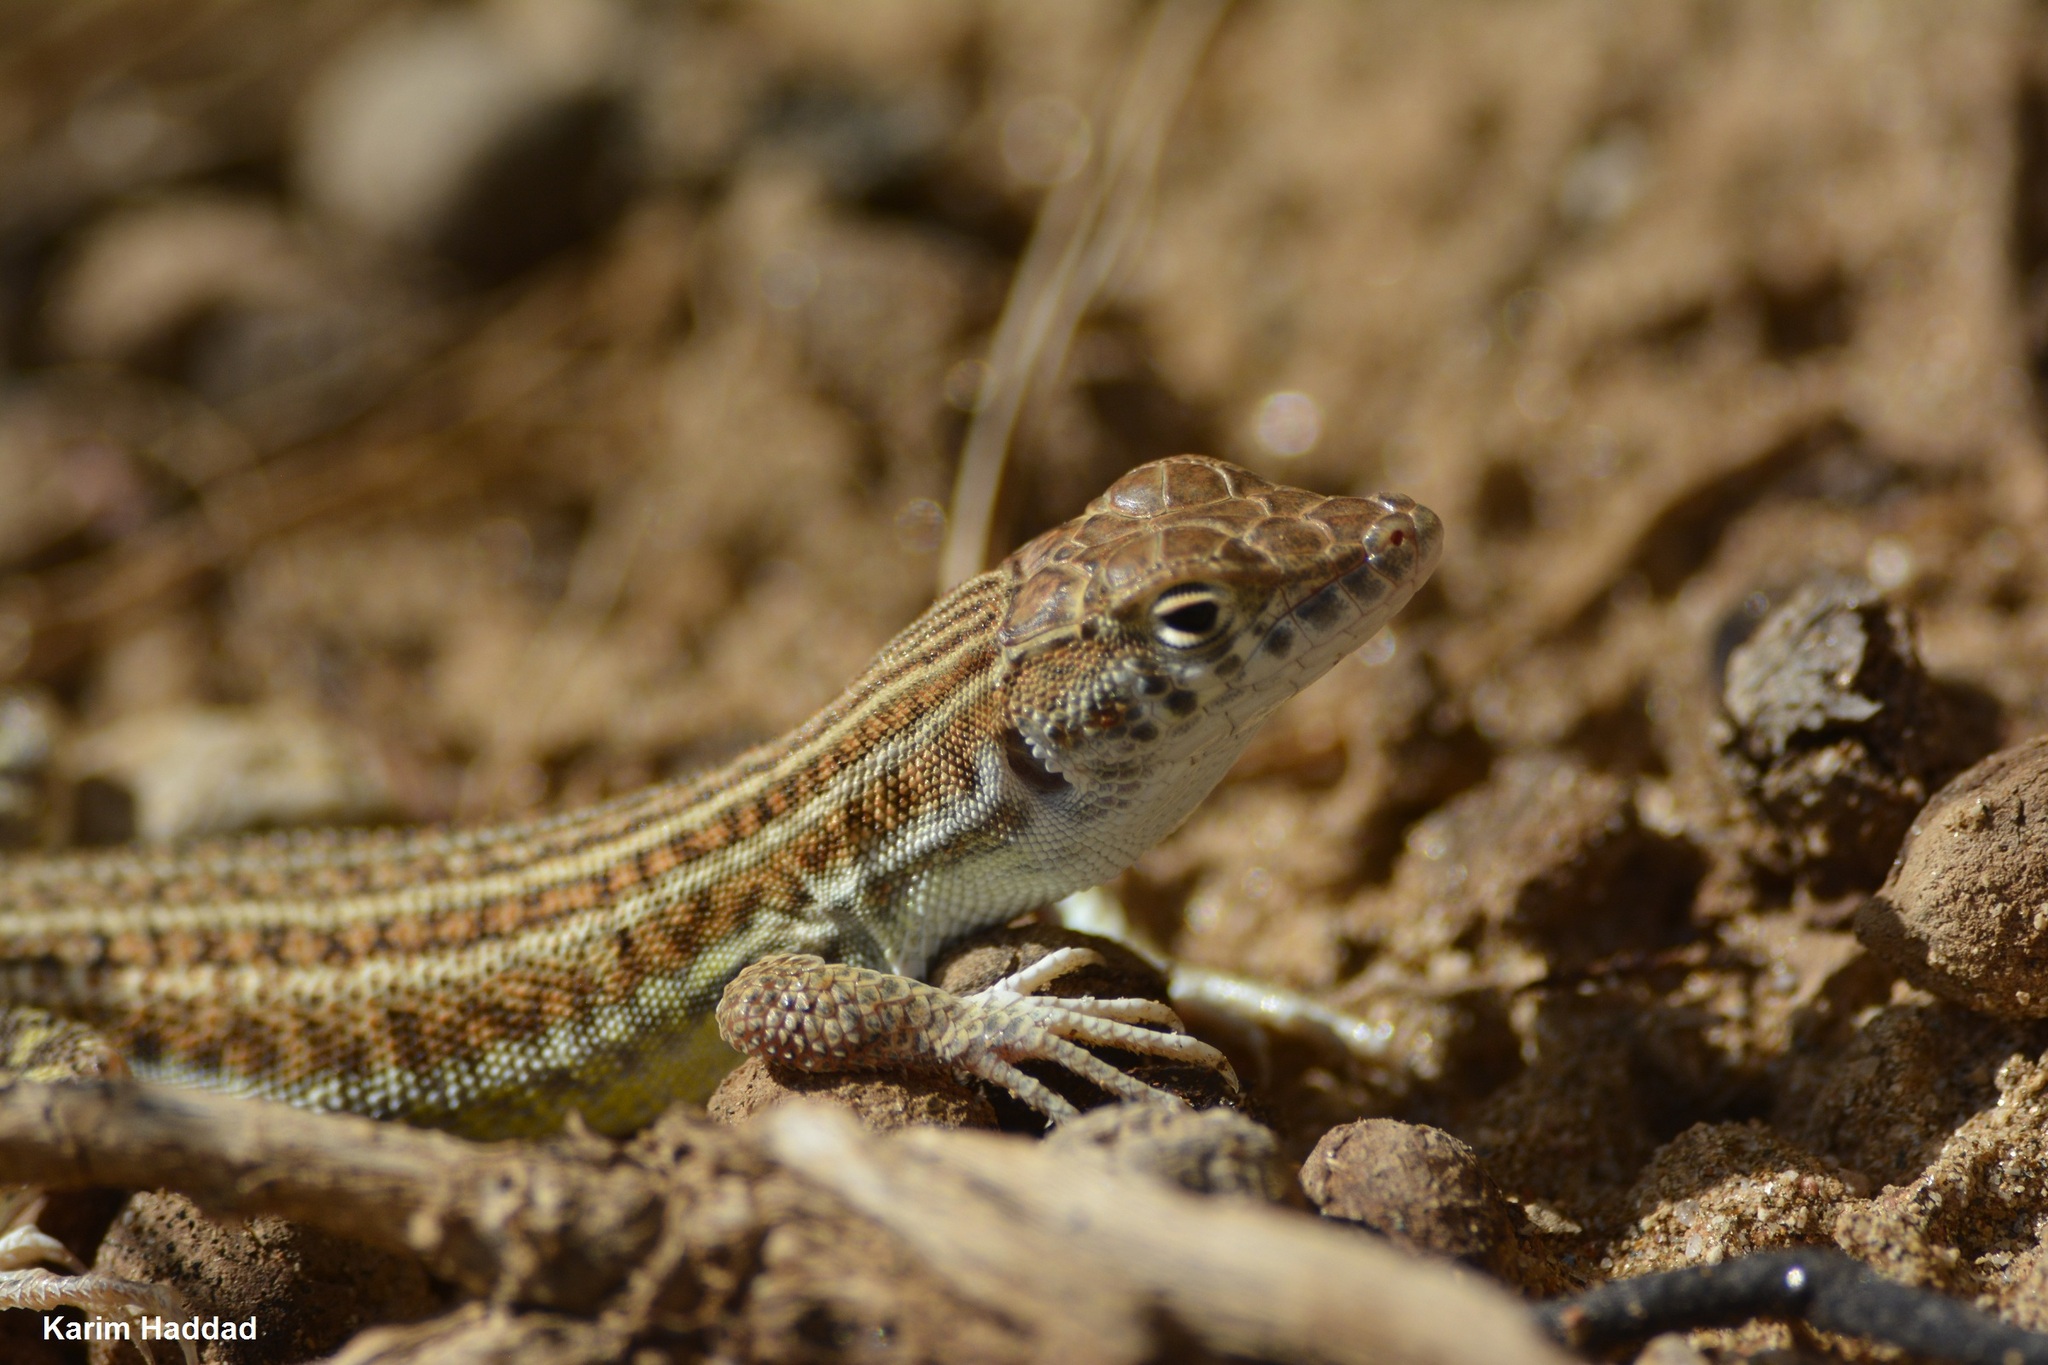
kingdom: Animalia
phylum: Chordata
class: Squamata
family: Lacertidae
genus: Acanthodactylus
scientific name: Acanthodactylus boskianus
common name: Bosc’s fringe-toed lizard
